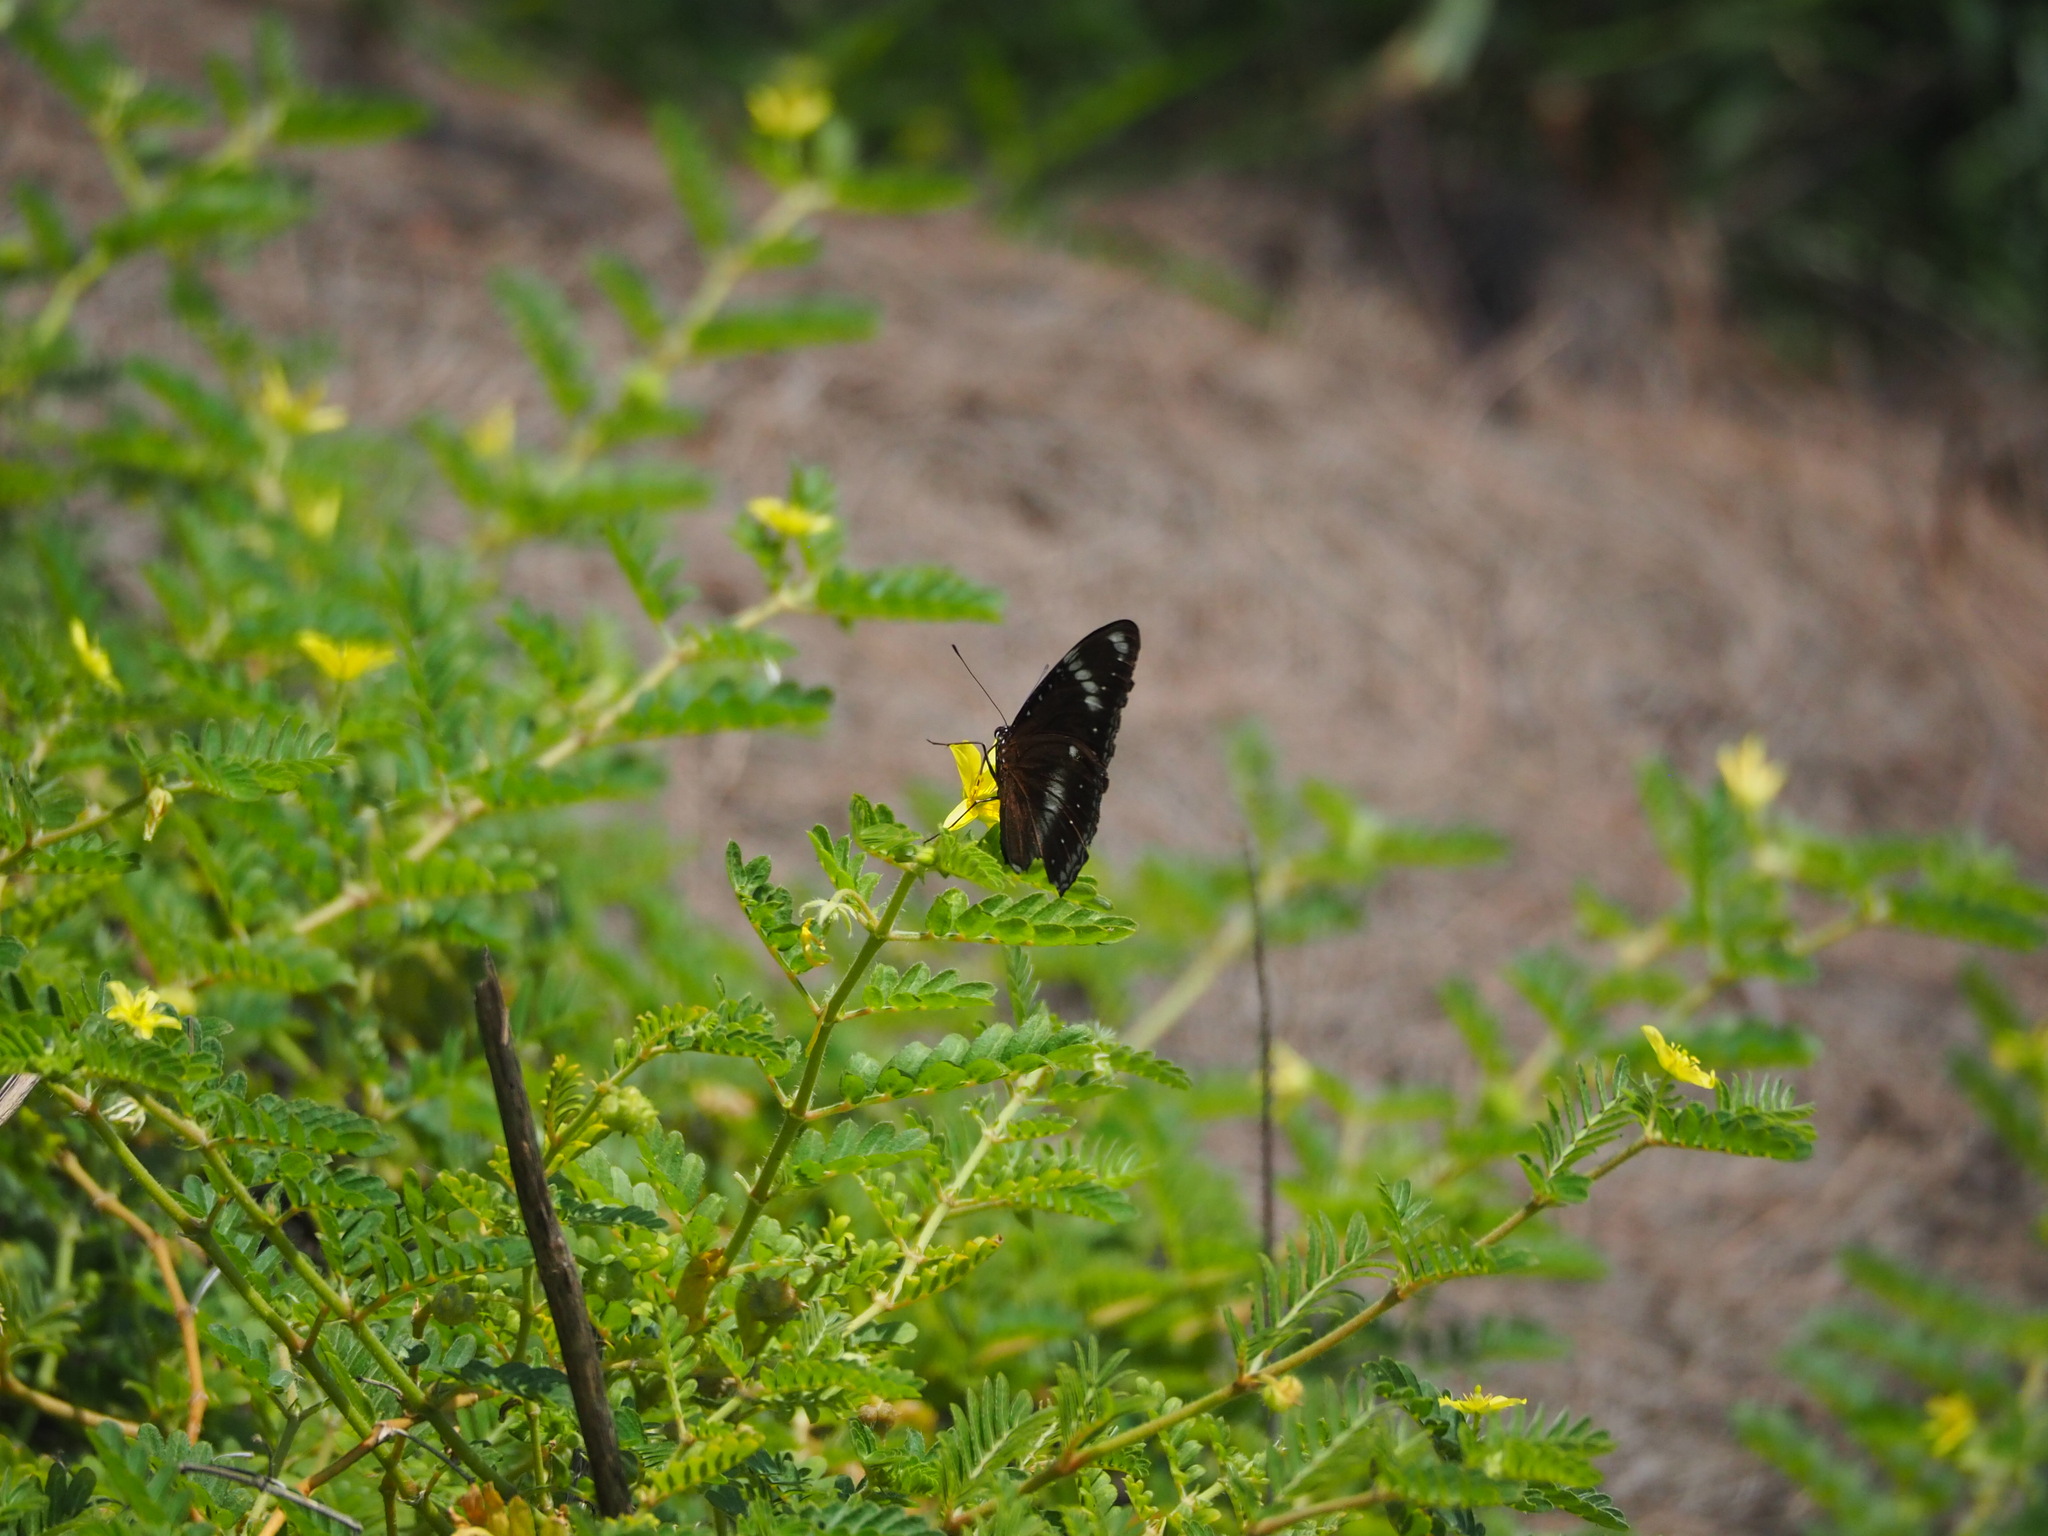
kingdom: Animalia
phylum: Arthropoda
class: Insecta
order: Lepidoptera
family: Nymphalidae
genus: Hypolimnas
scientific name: Hypolimnas bolina
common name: Great eggfly
